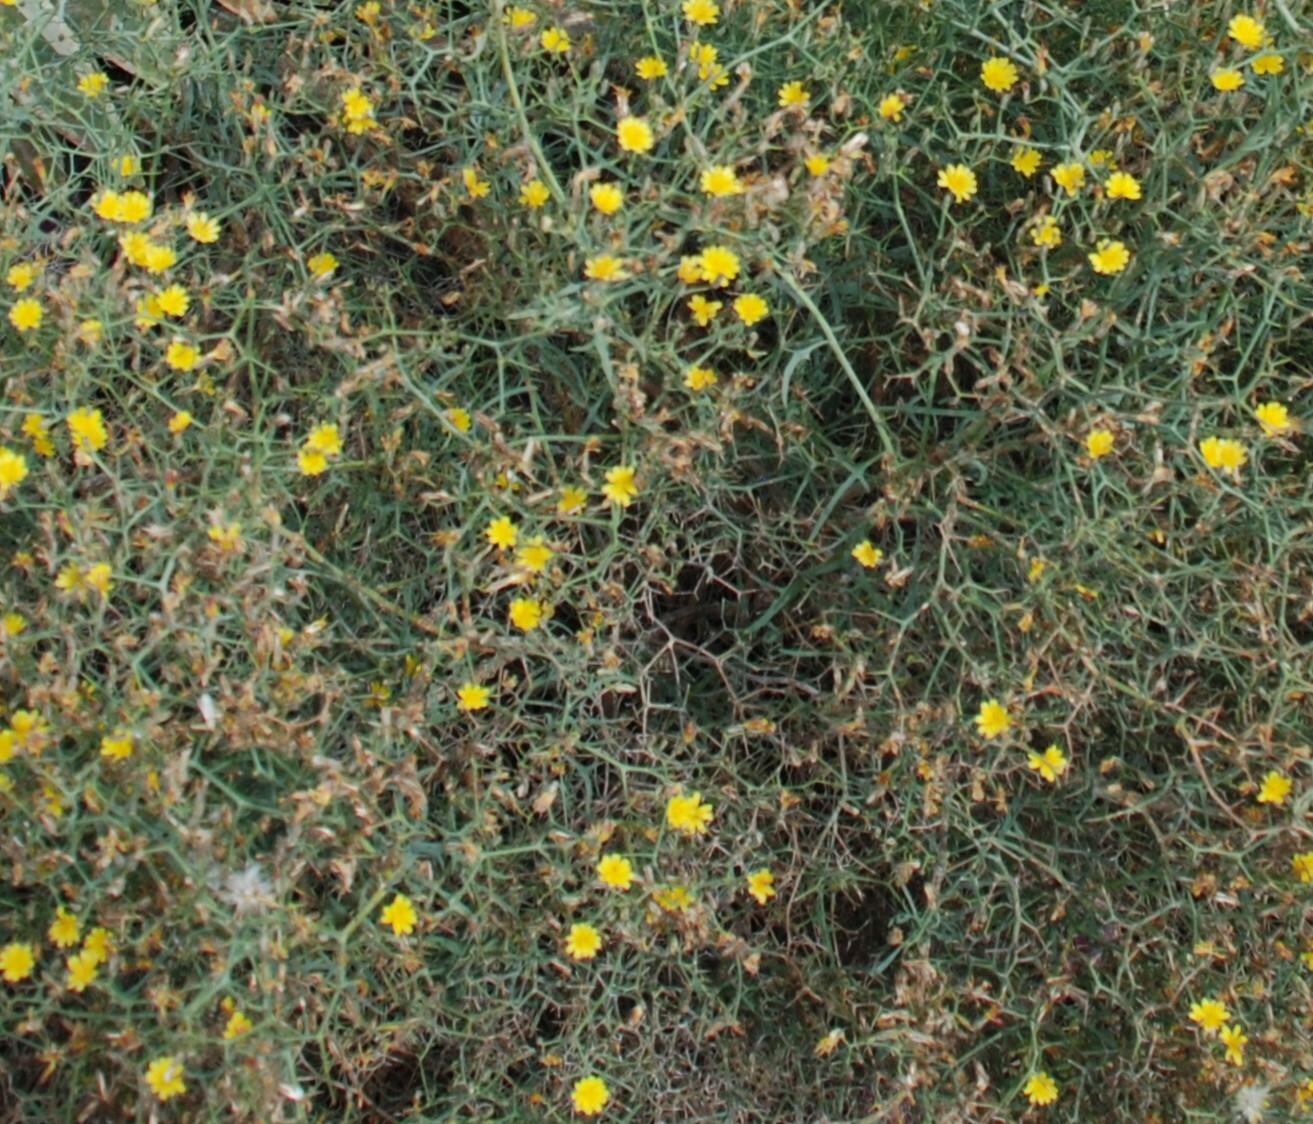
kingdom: Plantae
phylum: Tracheophyta
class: Magnoliopsida
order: Asterales
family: Asteraceae
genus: Launaea
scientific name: Launaea arborescens
